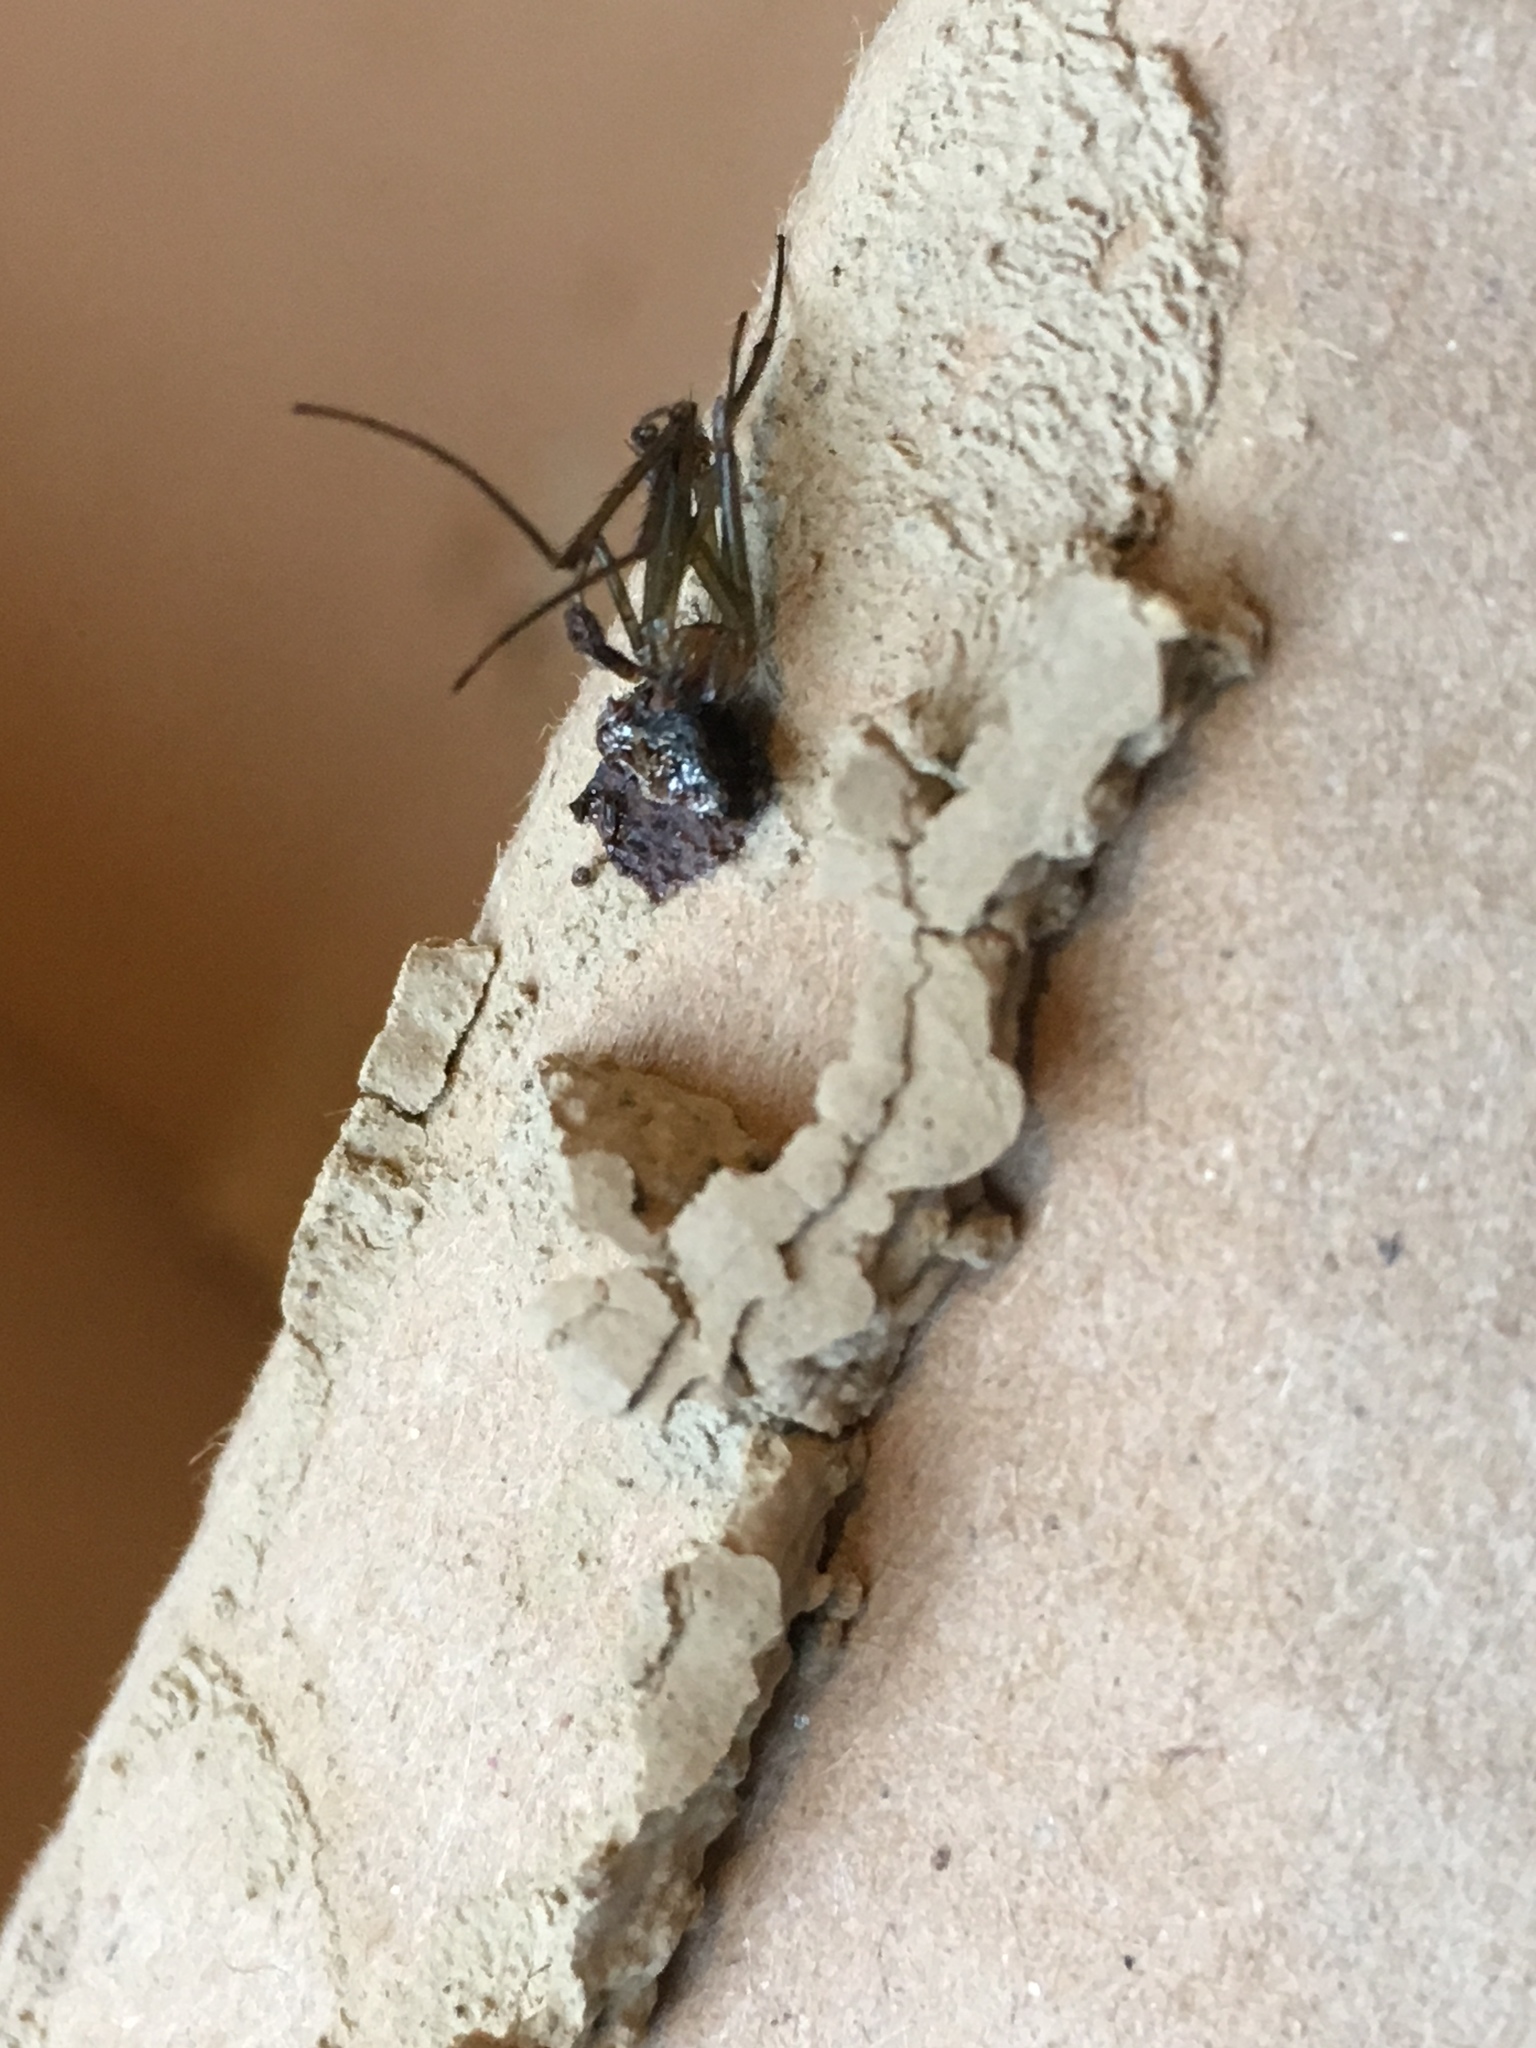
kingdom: Animalia
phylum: Arthropoda
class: Arachnida
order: Araneae
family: Tetragnathidae
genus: Leucauge
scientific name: Leucauge dromedaria
